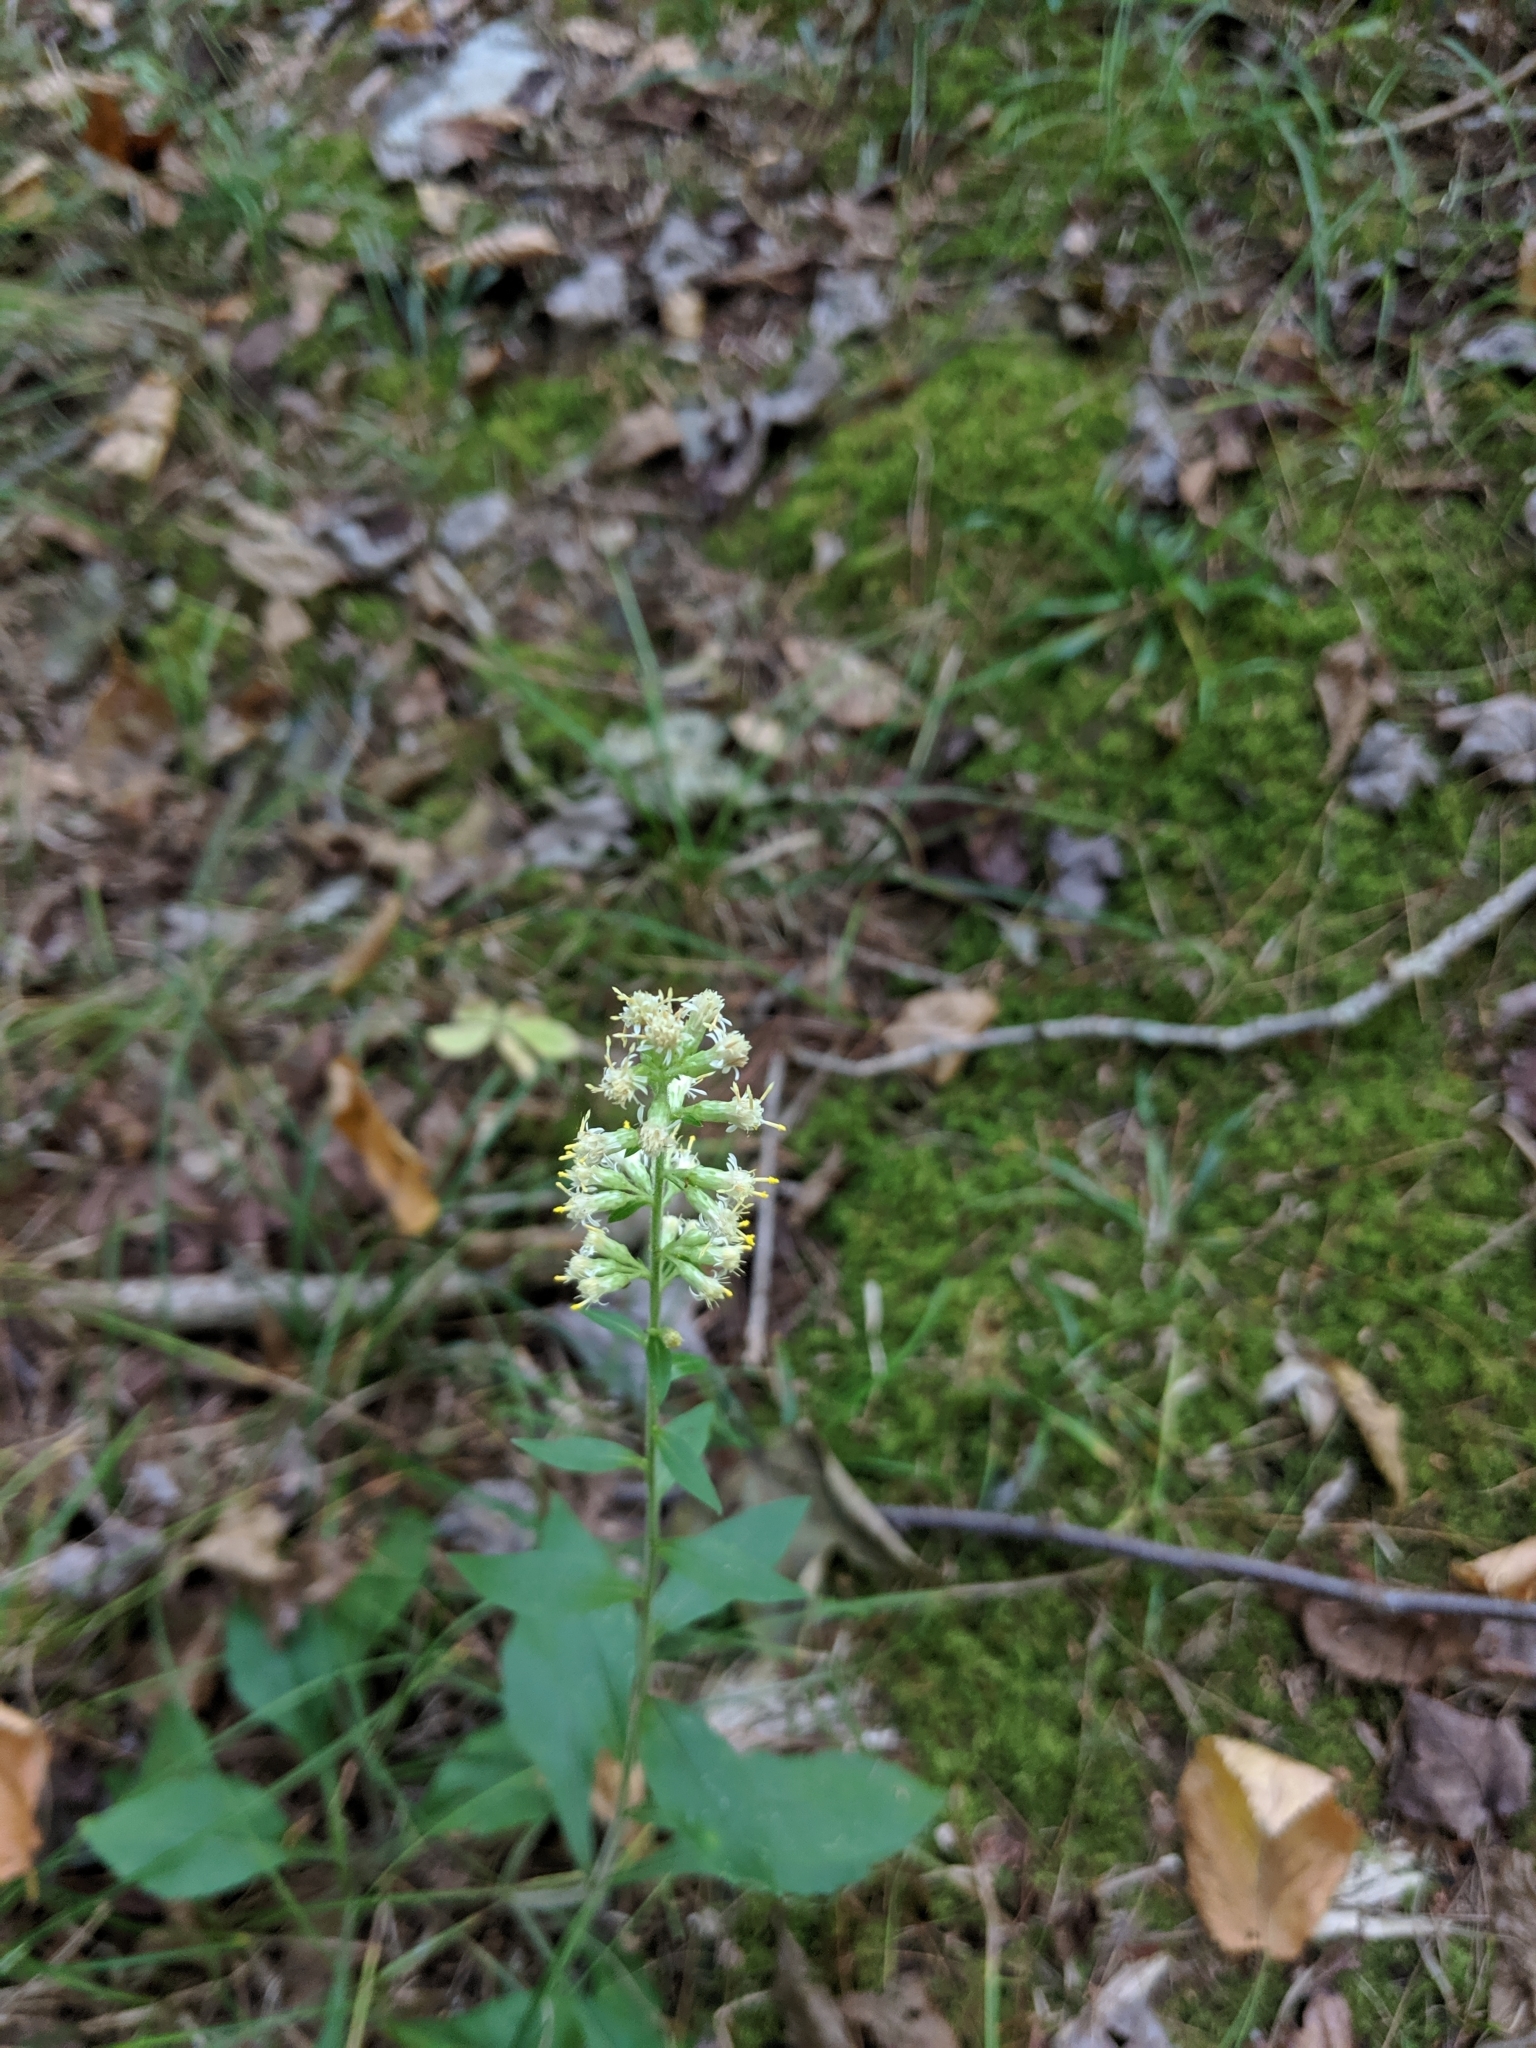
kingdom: Plantae
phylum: Tracheophyta
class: Magnoliopsida
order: Asterales
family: Asteraceae
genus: Solidago
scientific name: Solidago bicolor
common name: Silverrod
